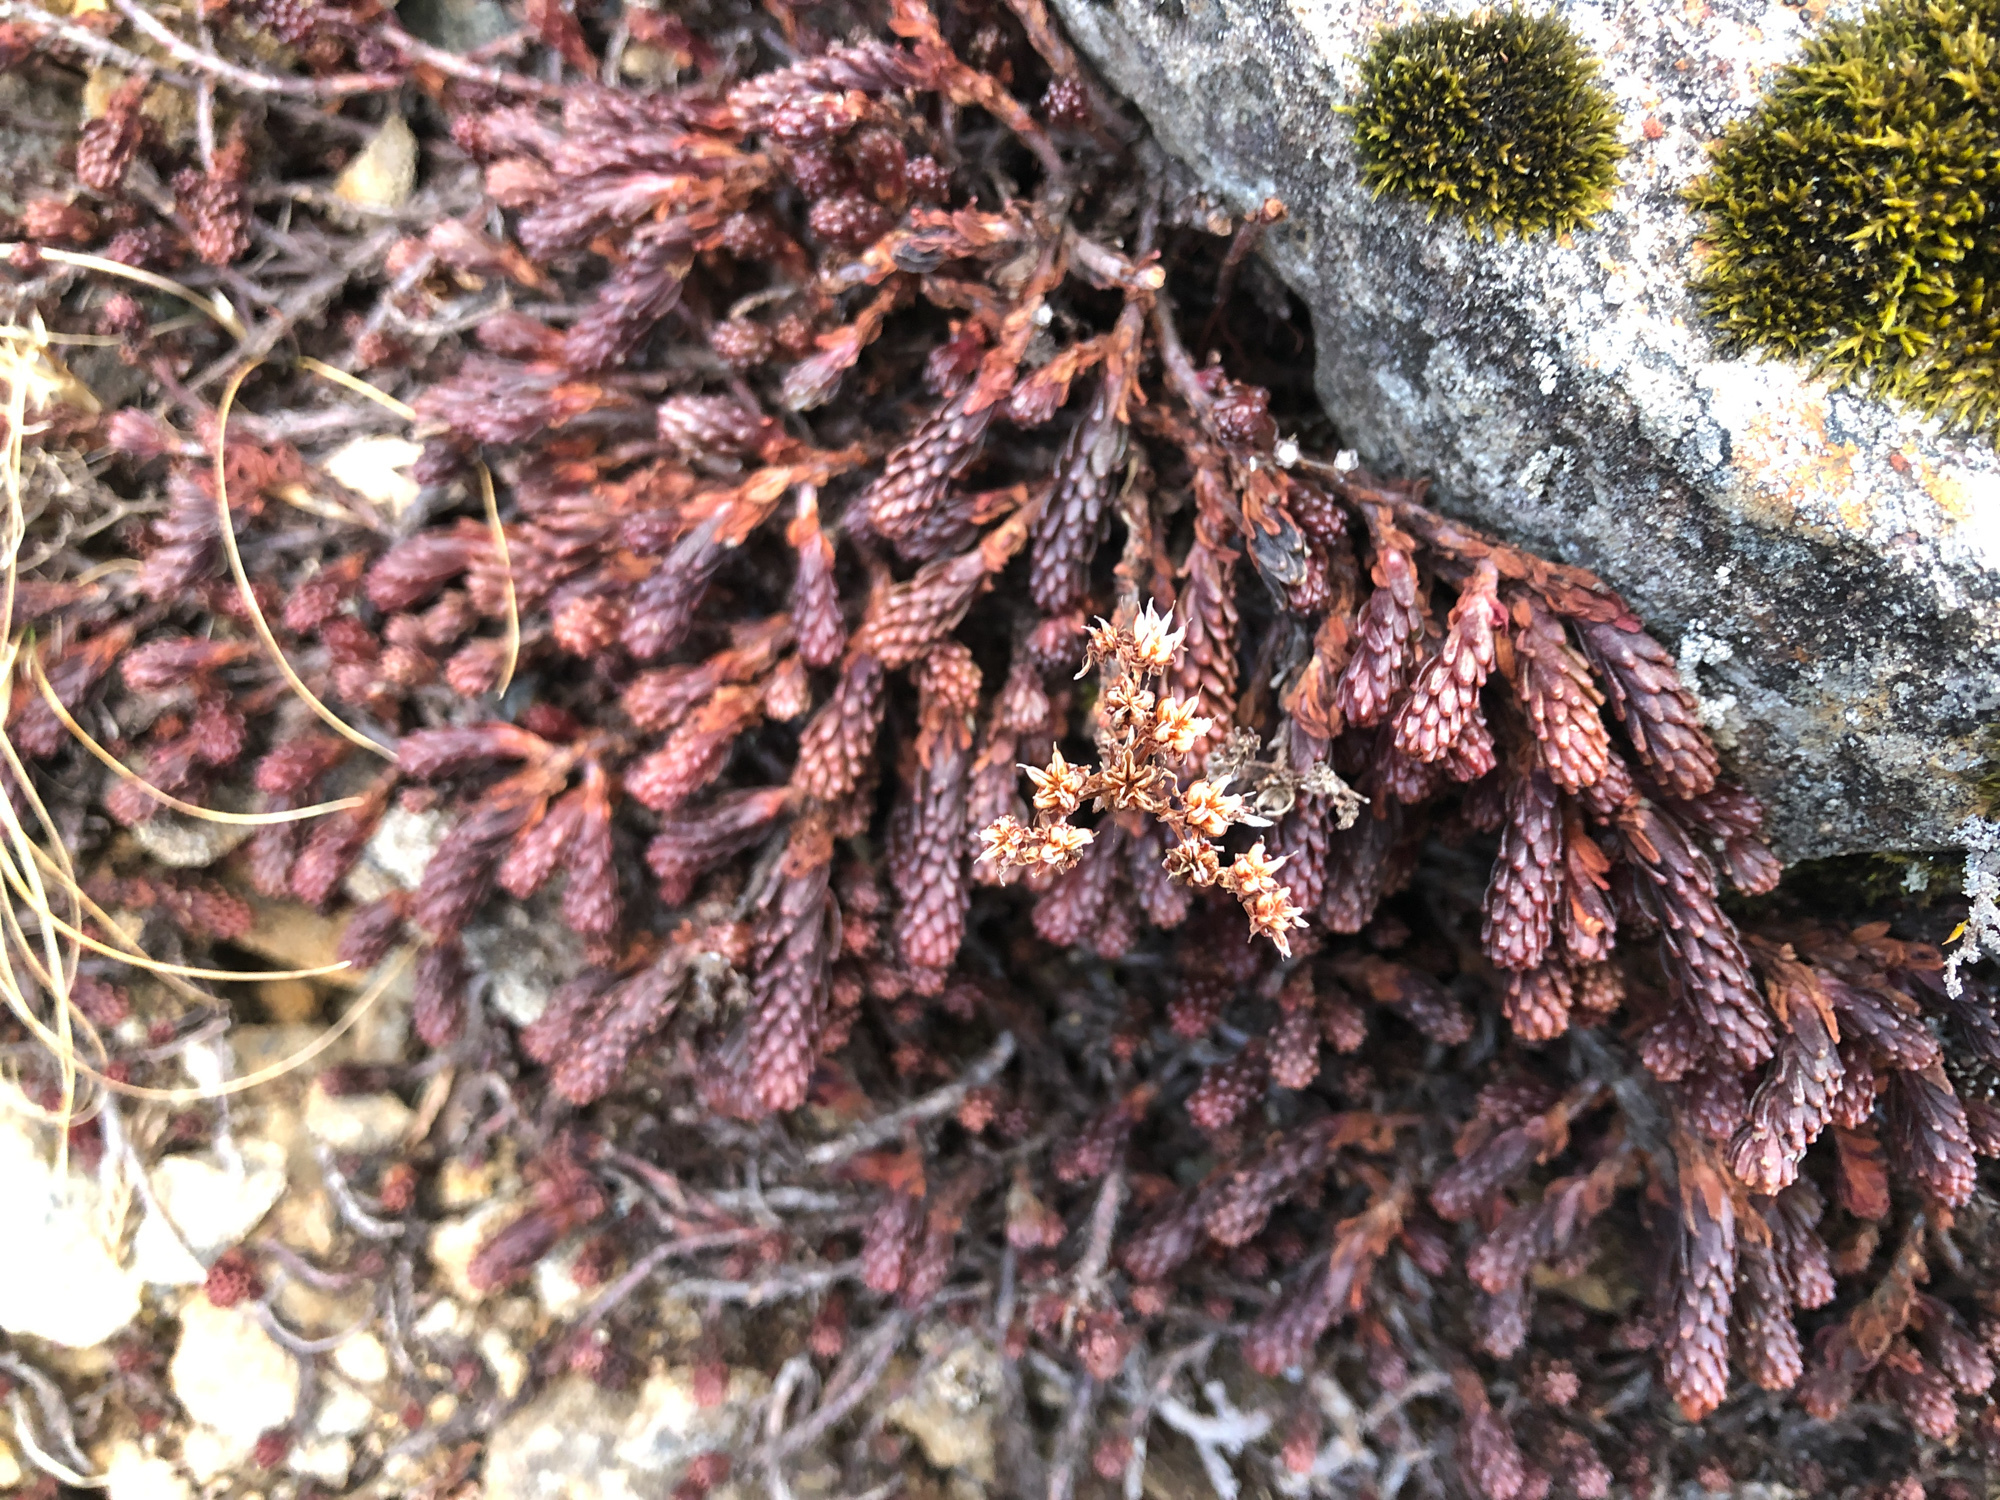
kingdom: Plantae
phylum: Tracheophyta
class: Magnoliopsida
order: Saxifragales
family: Crassulaceae
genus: Sedum
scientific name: Sedum morrisonense
